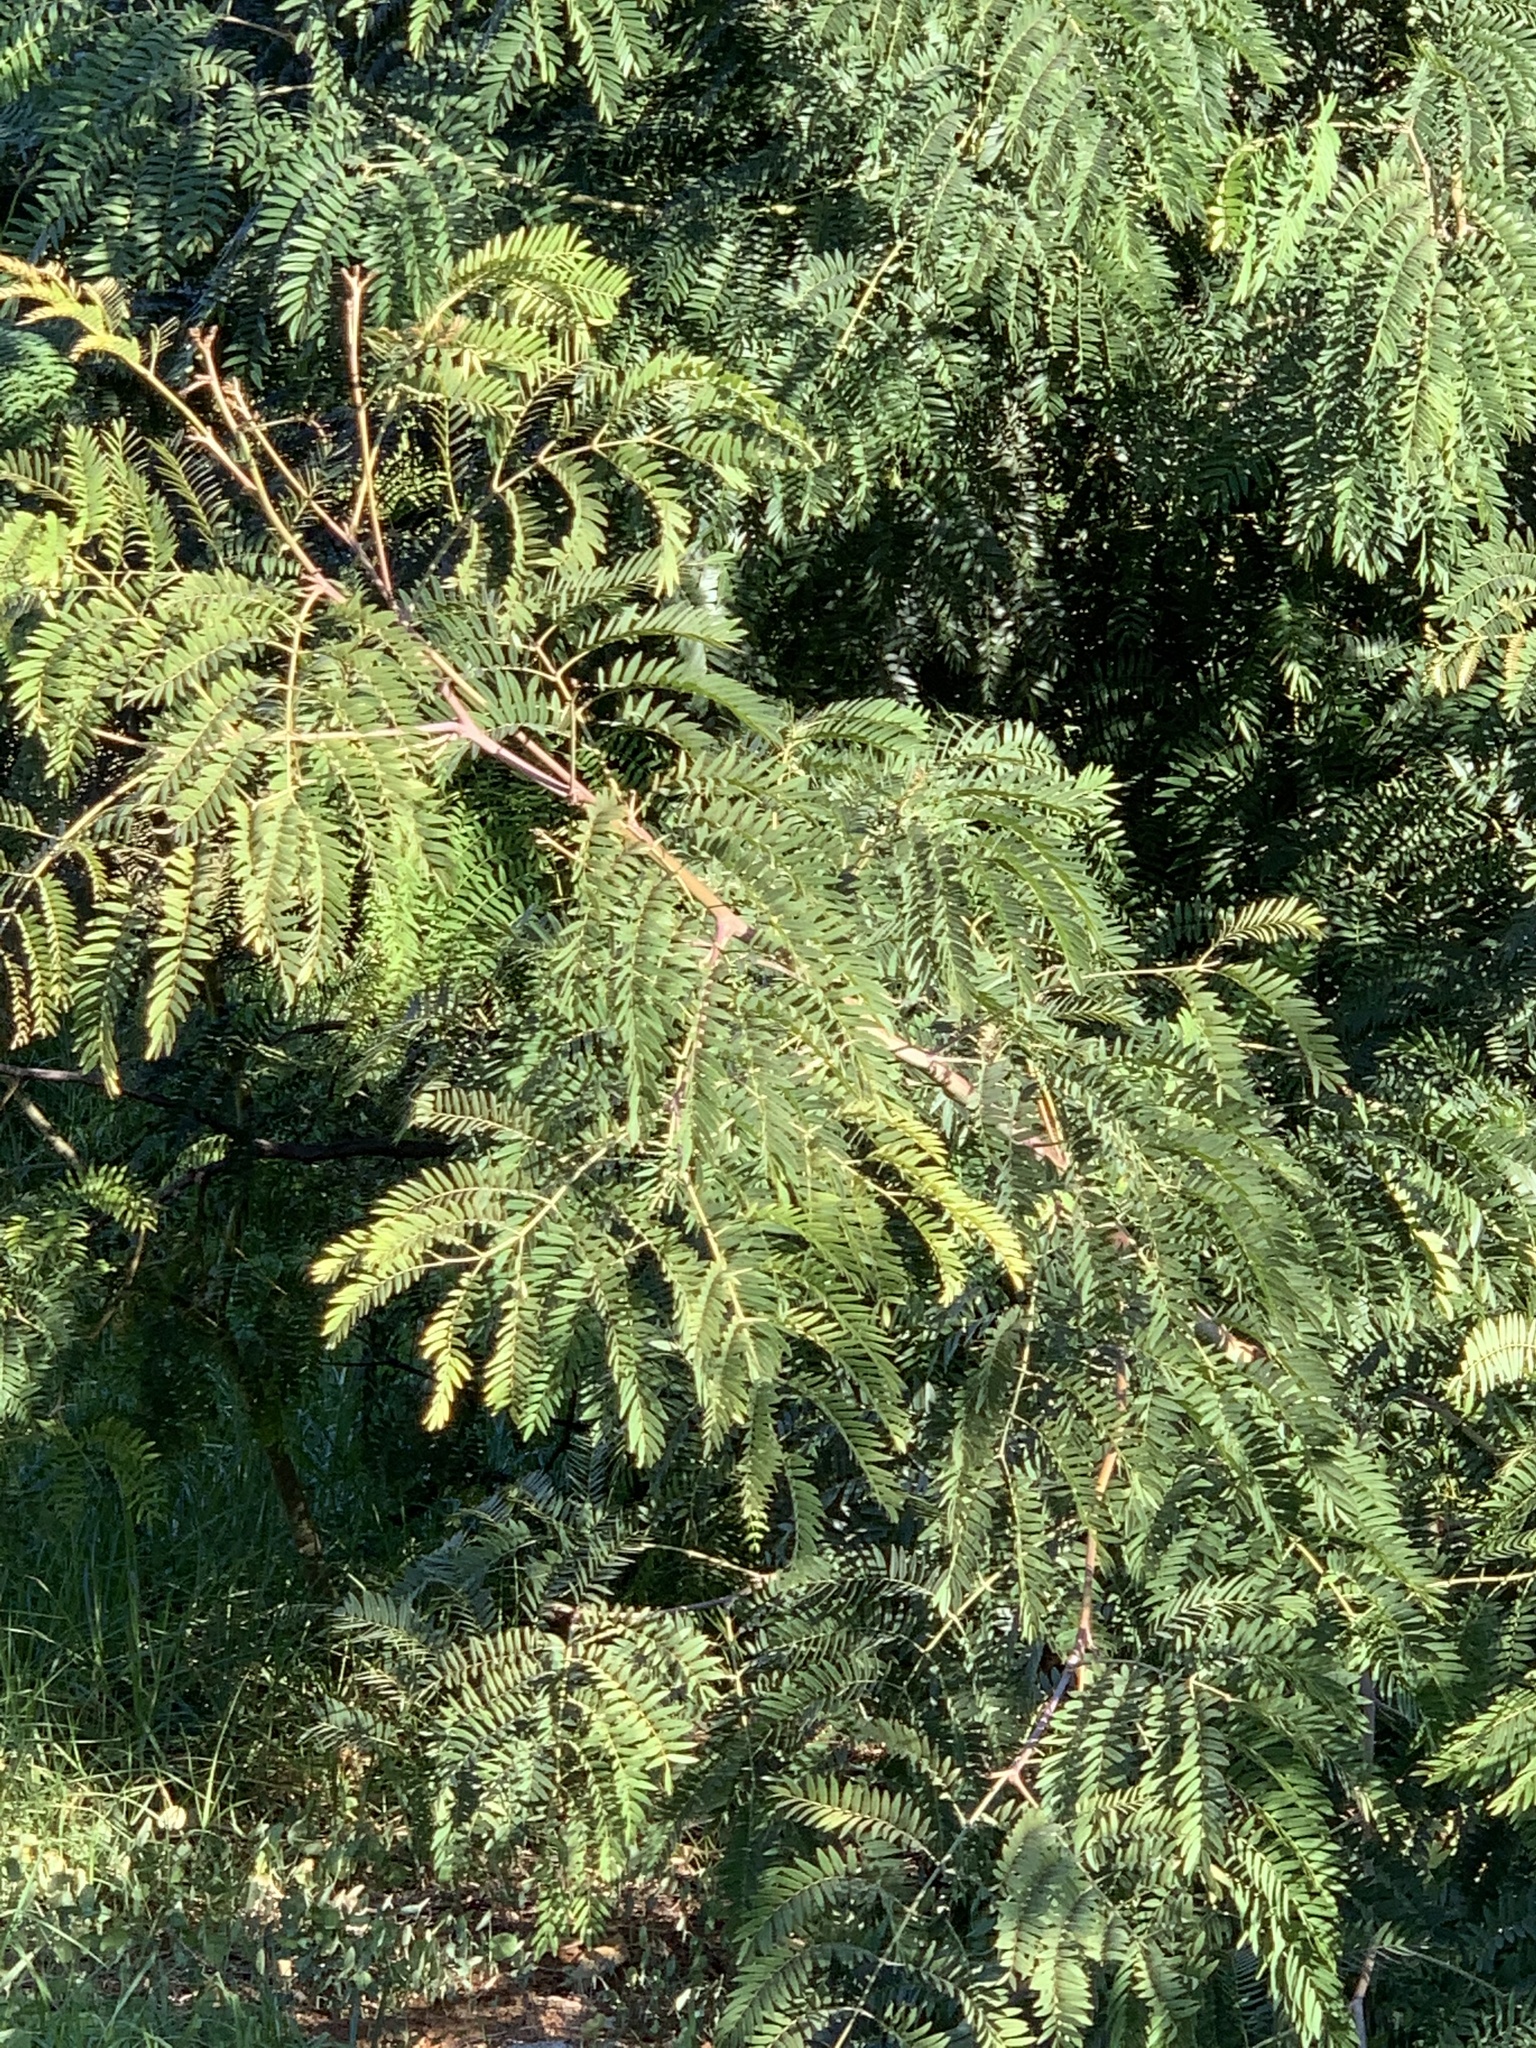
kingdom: Plantae
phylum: Tracheophyta
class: Magnoliopsida
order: Fabales
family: Fabaceae
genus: Acacia
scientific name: Acacia elata
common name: Cedar wattle
